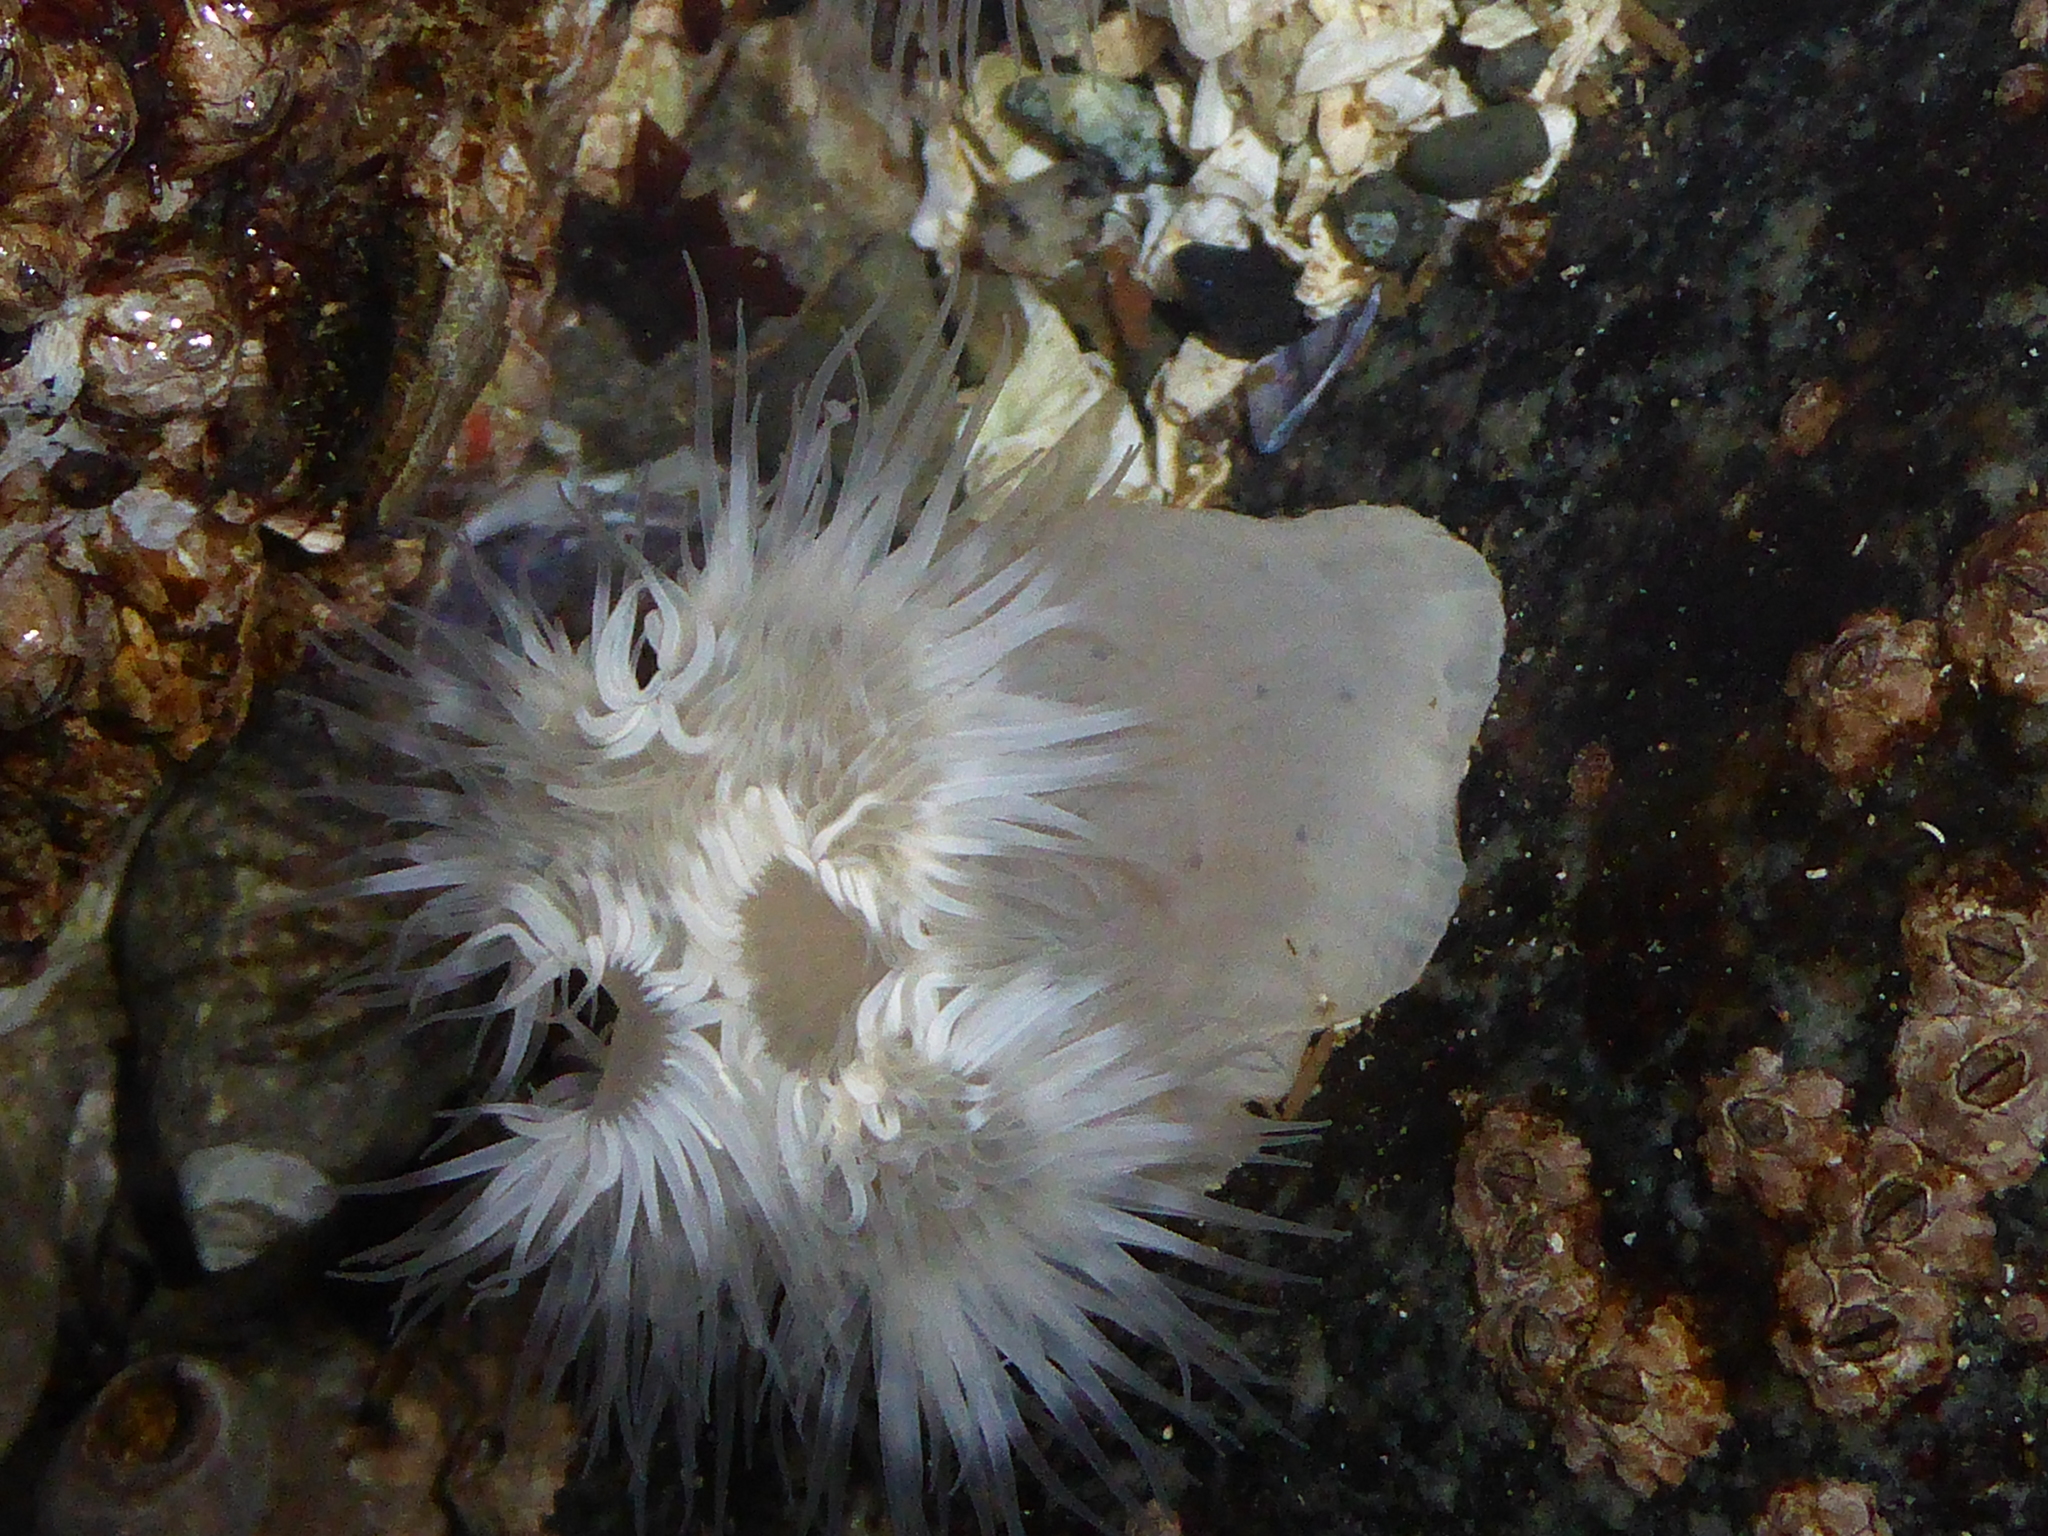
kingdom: Animalia
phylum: Cnidaria
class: Anthozoa
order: Actiniaria
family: Metridiidae
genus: Metridium
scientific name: Metridium senile
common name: Clonal plumose anemone
